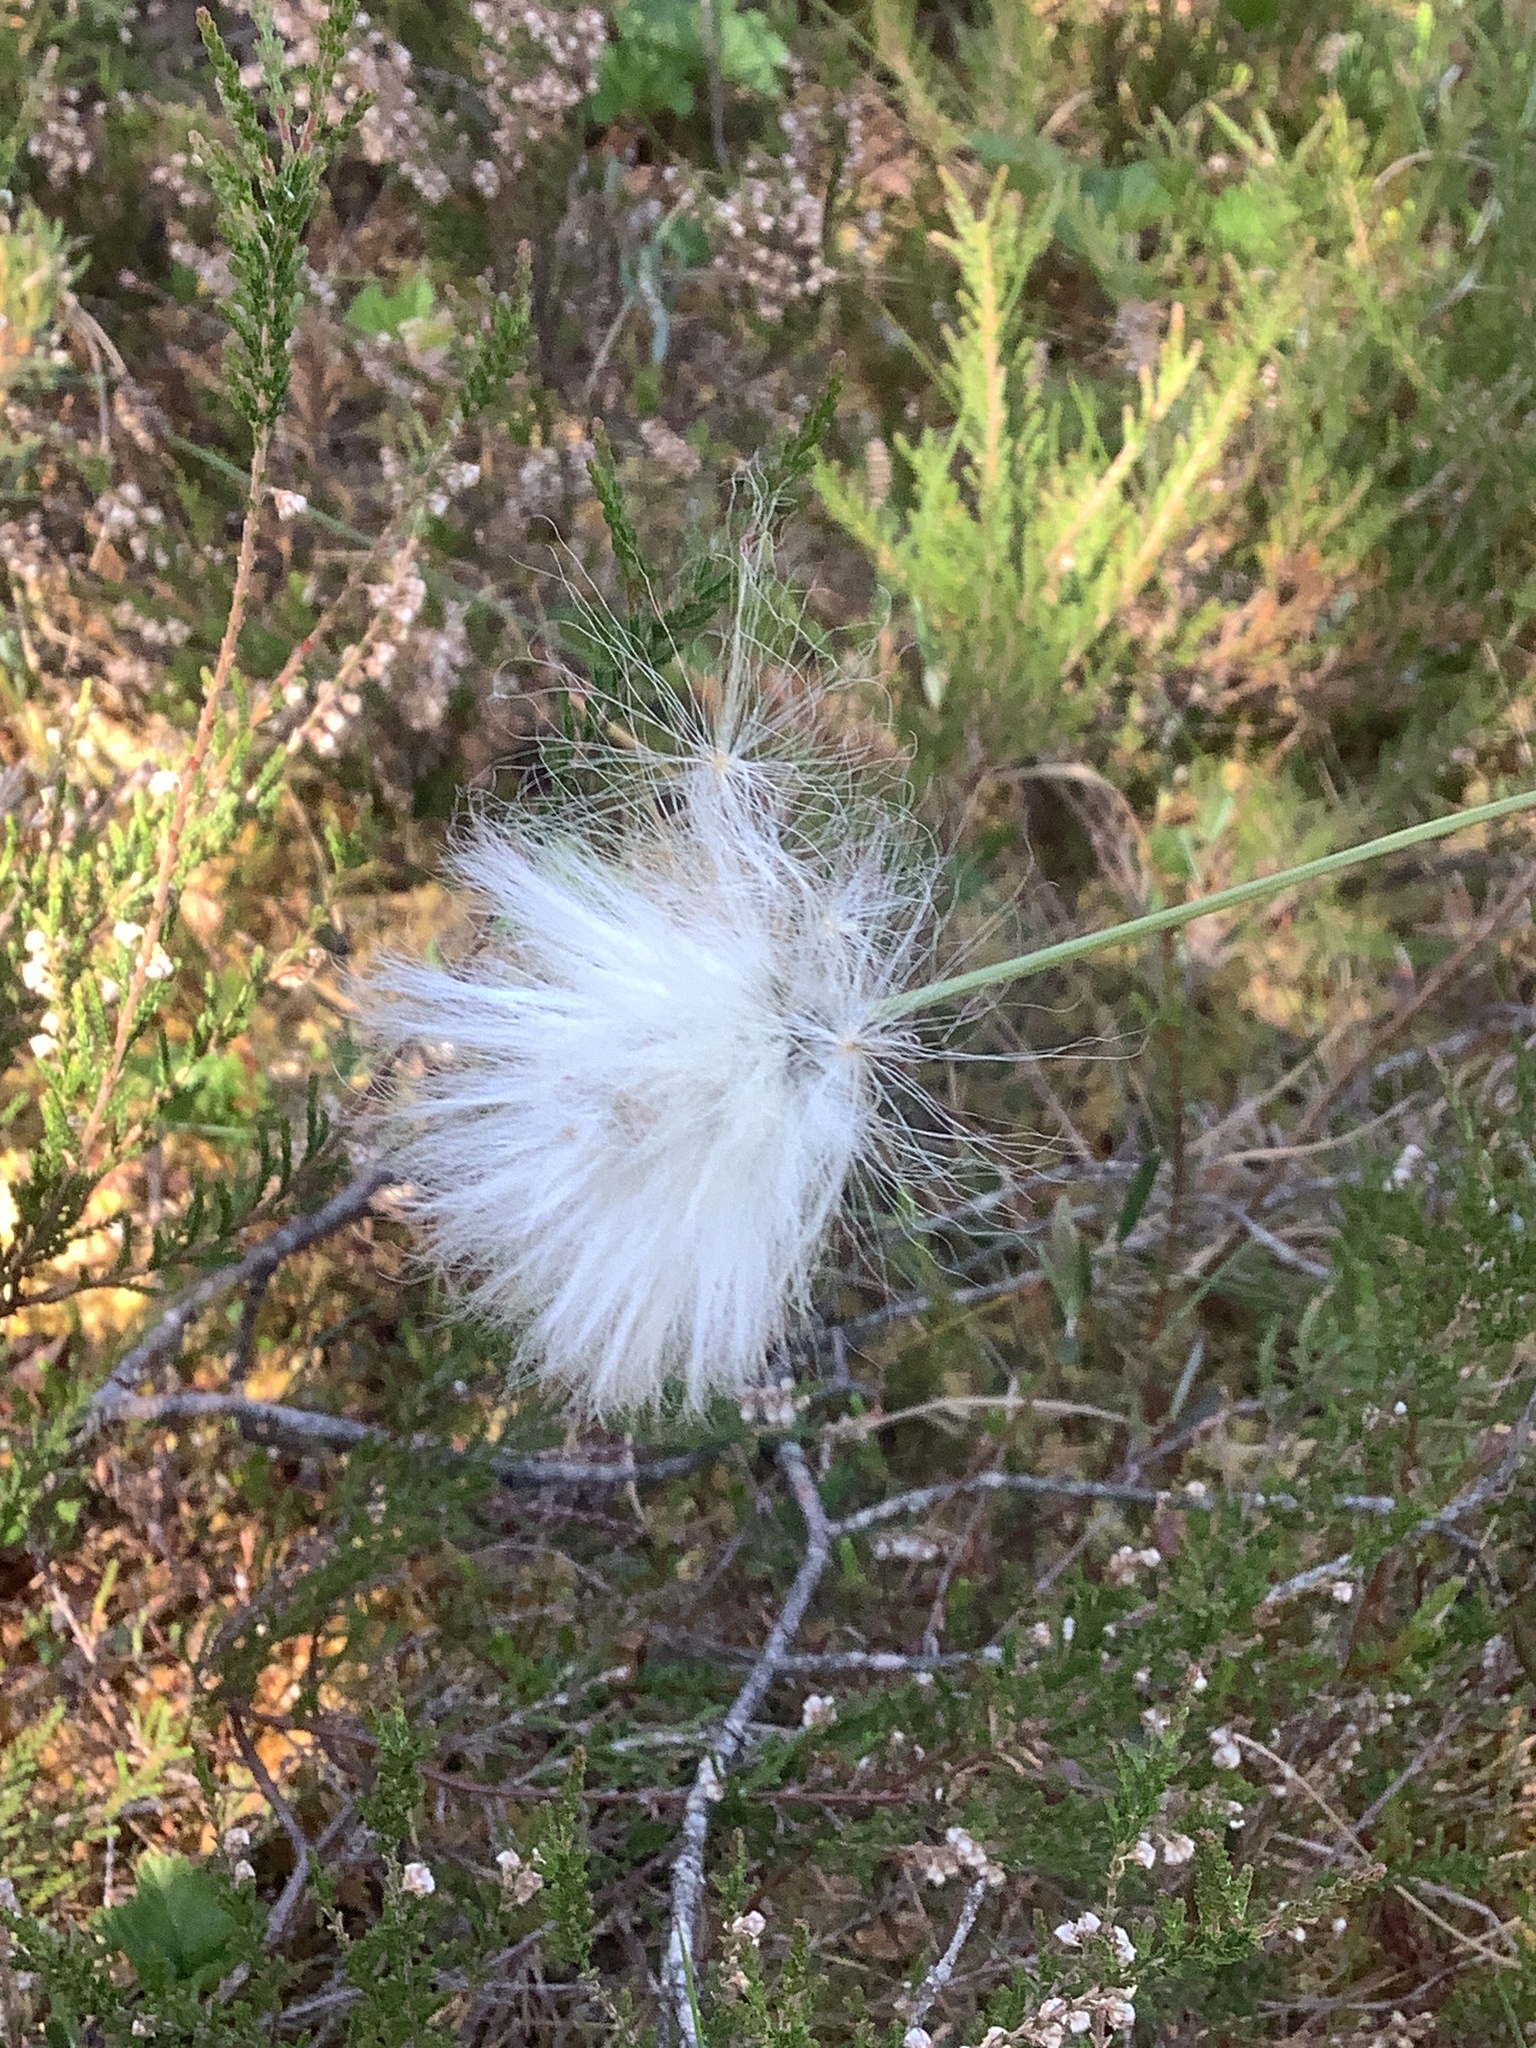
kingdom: Plantae
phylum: Tracheophyta
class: Liliopsida
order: Poales
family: Cyperaceae
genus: Eriophorum
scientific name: Eriophorum vaginatum
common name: Hare's-tail cottongrass
